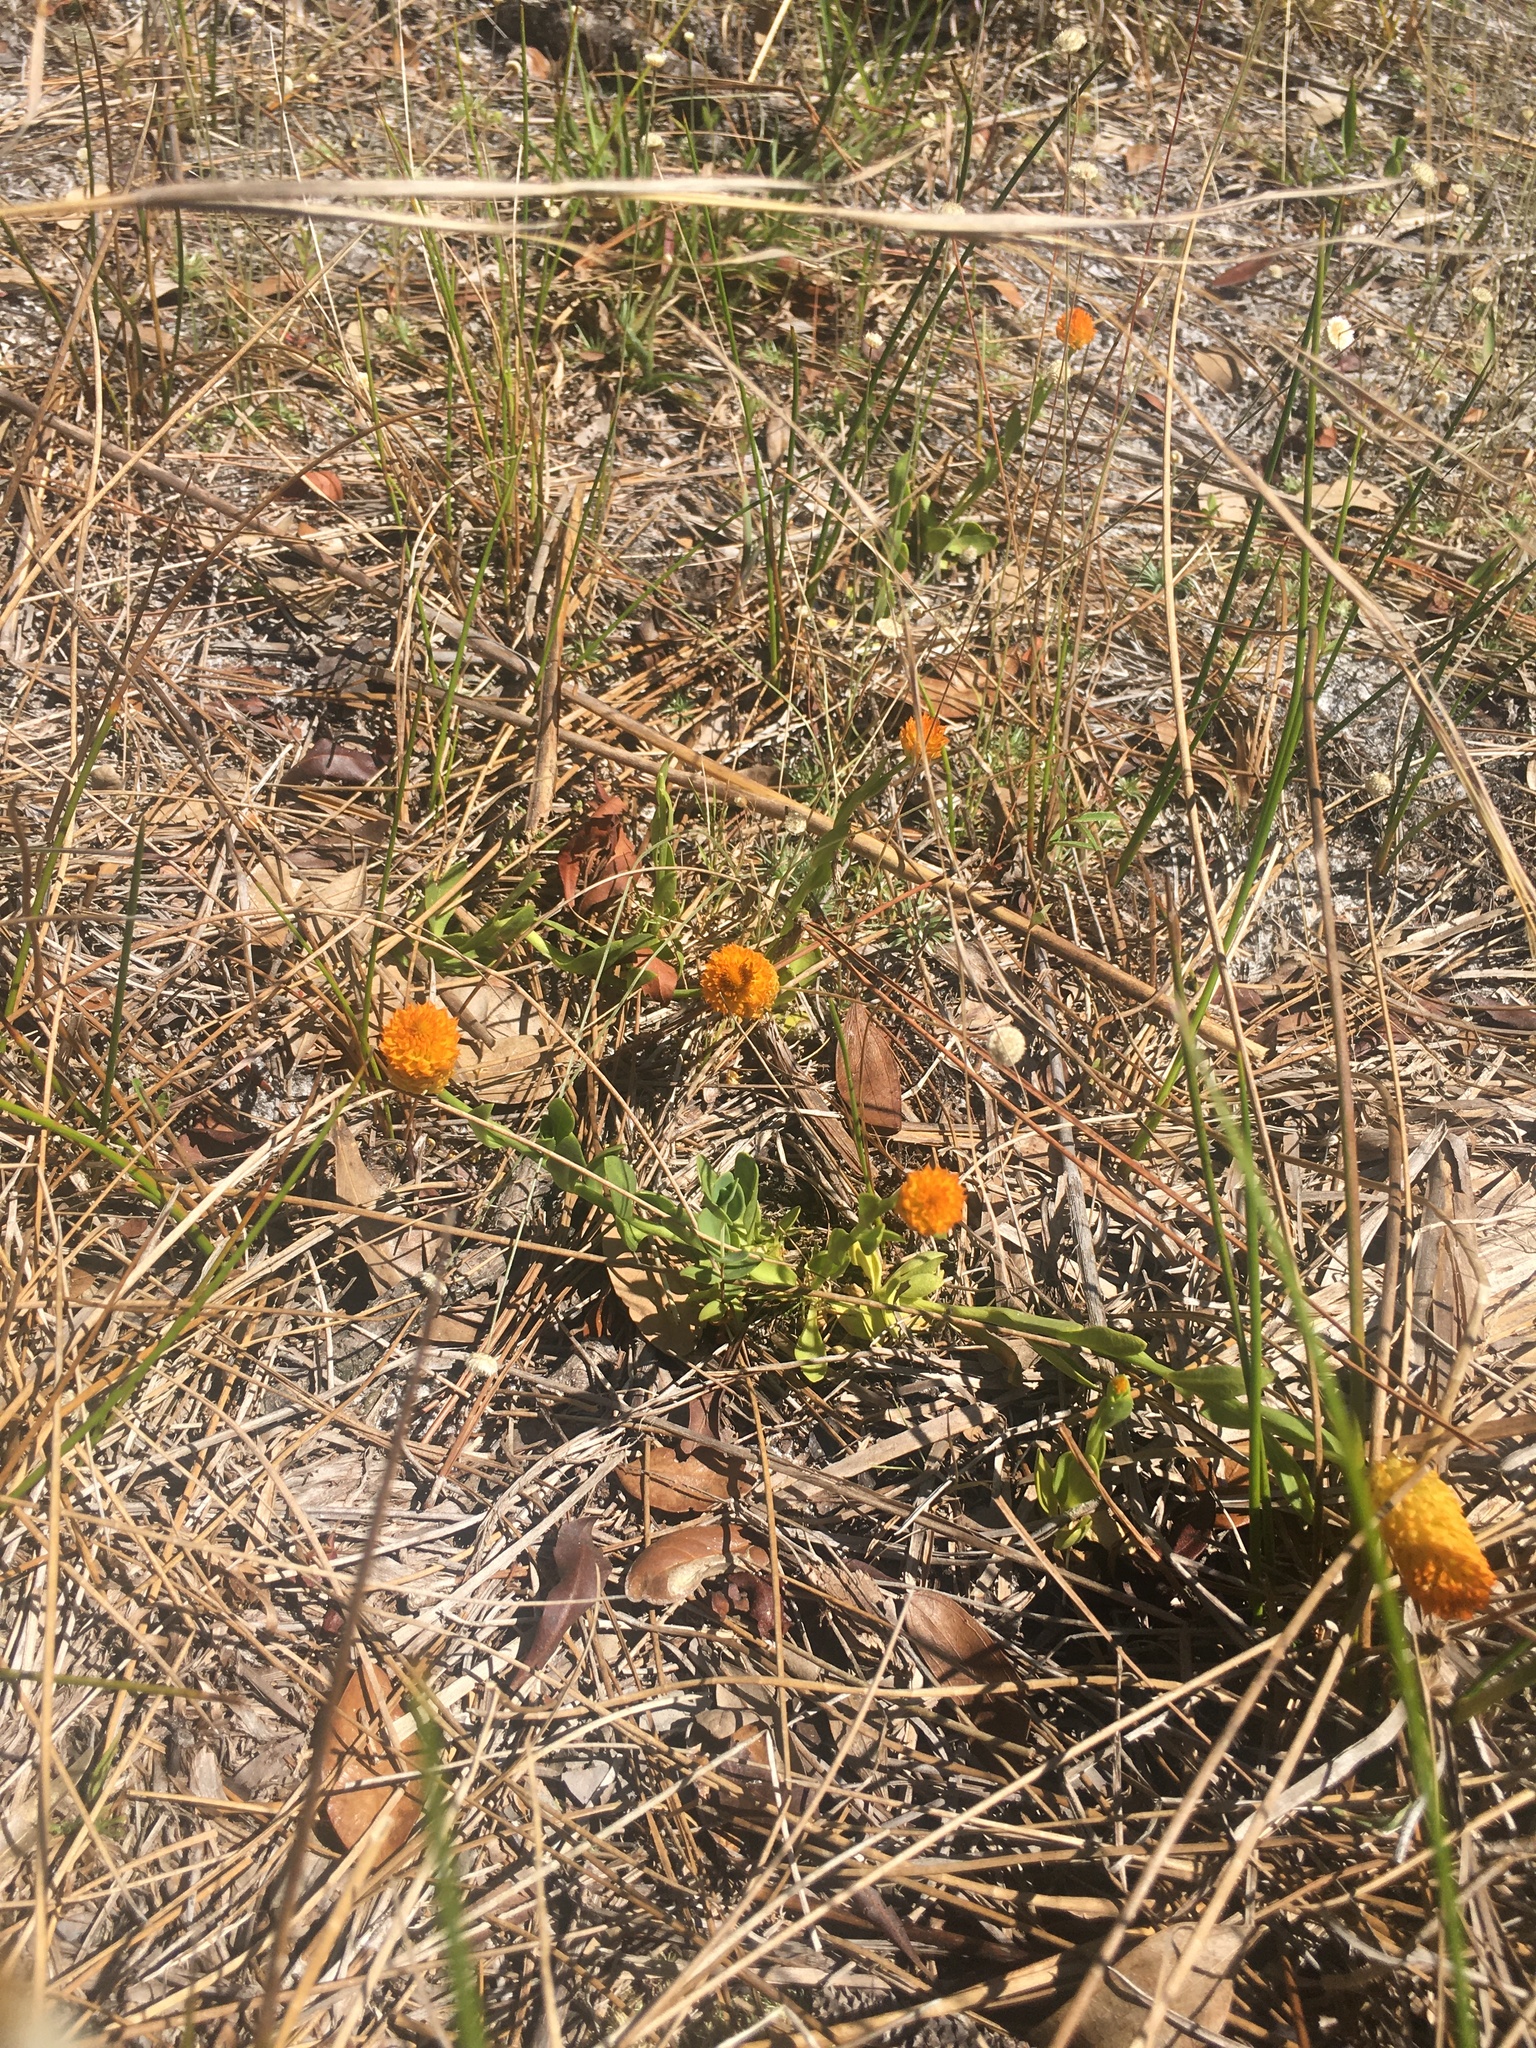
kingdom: Plantae
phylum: Tracheophyta
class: Magnoliopsida
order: Fabales
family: Polygalaceae
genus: Polygala
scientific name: Polygala lutea
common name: Orange milkwort
